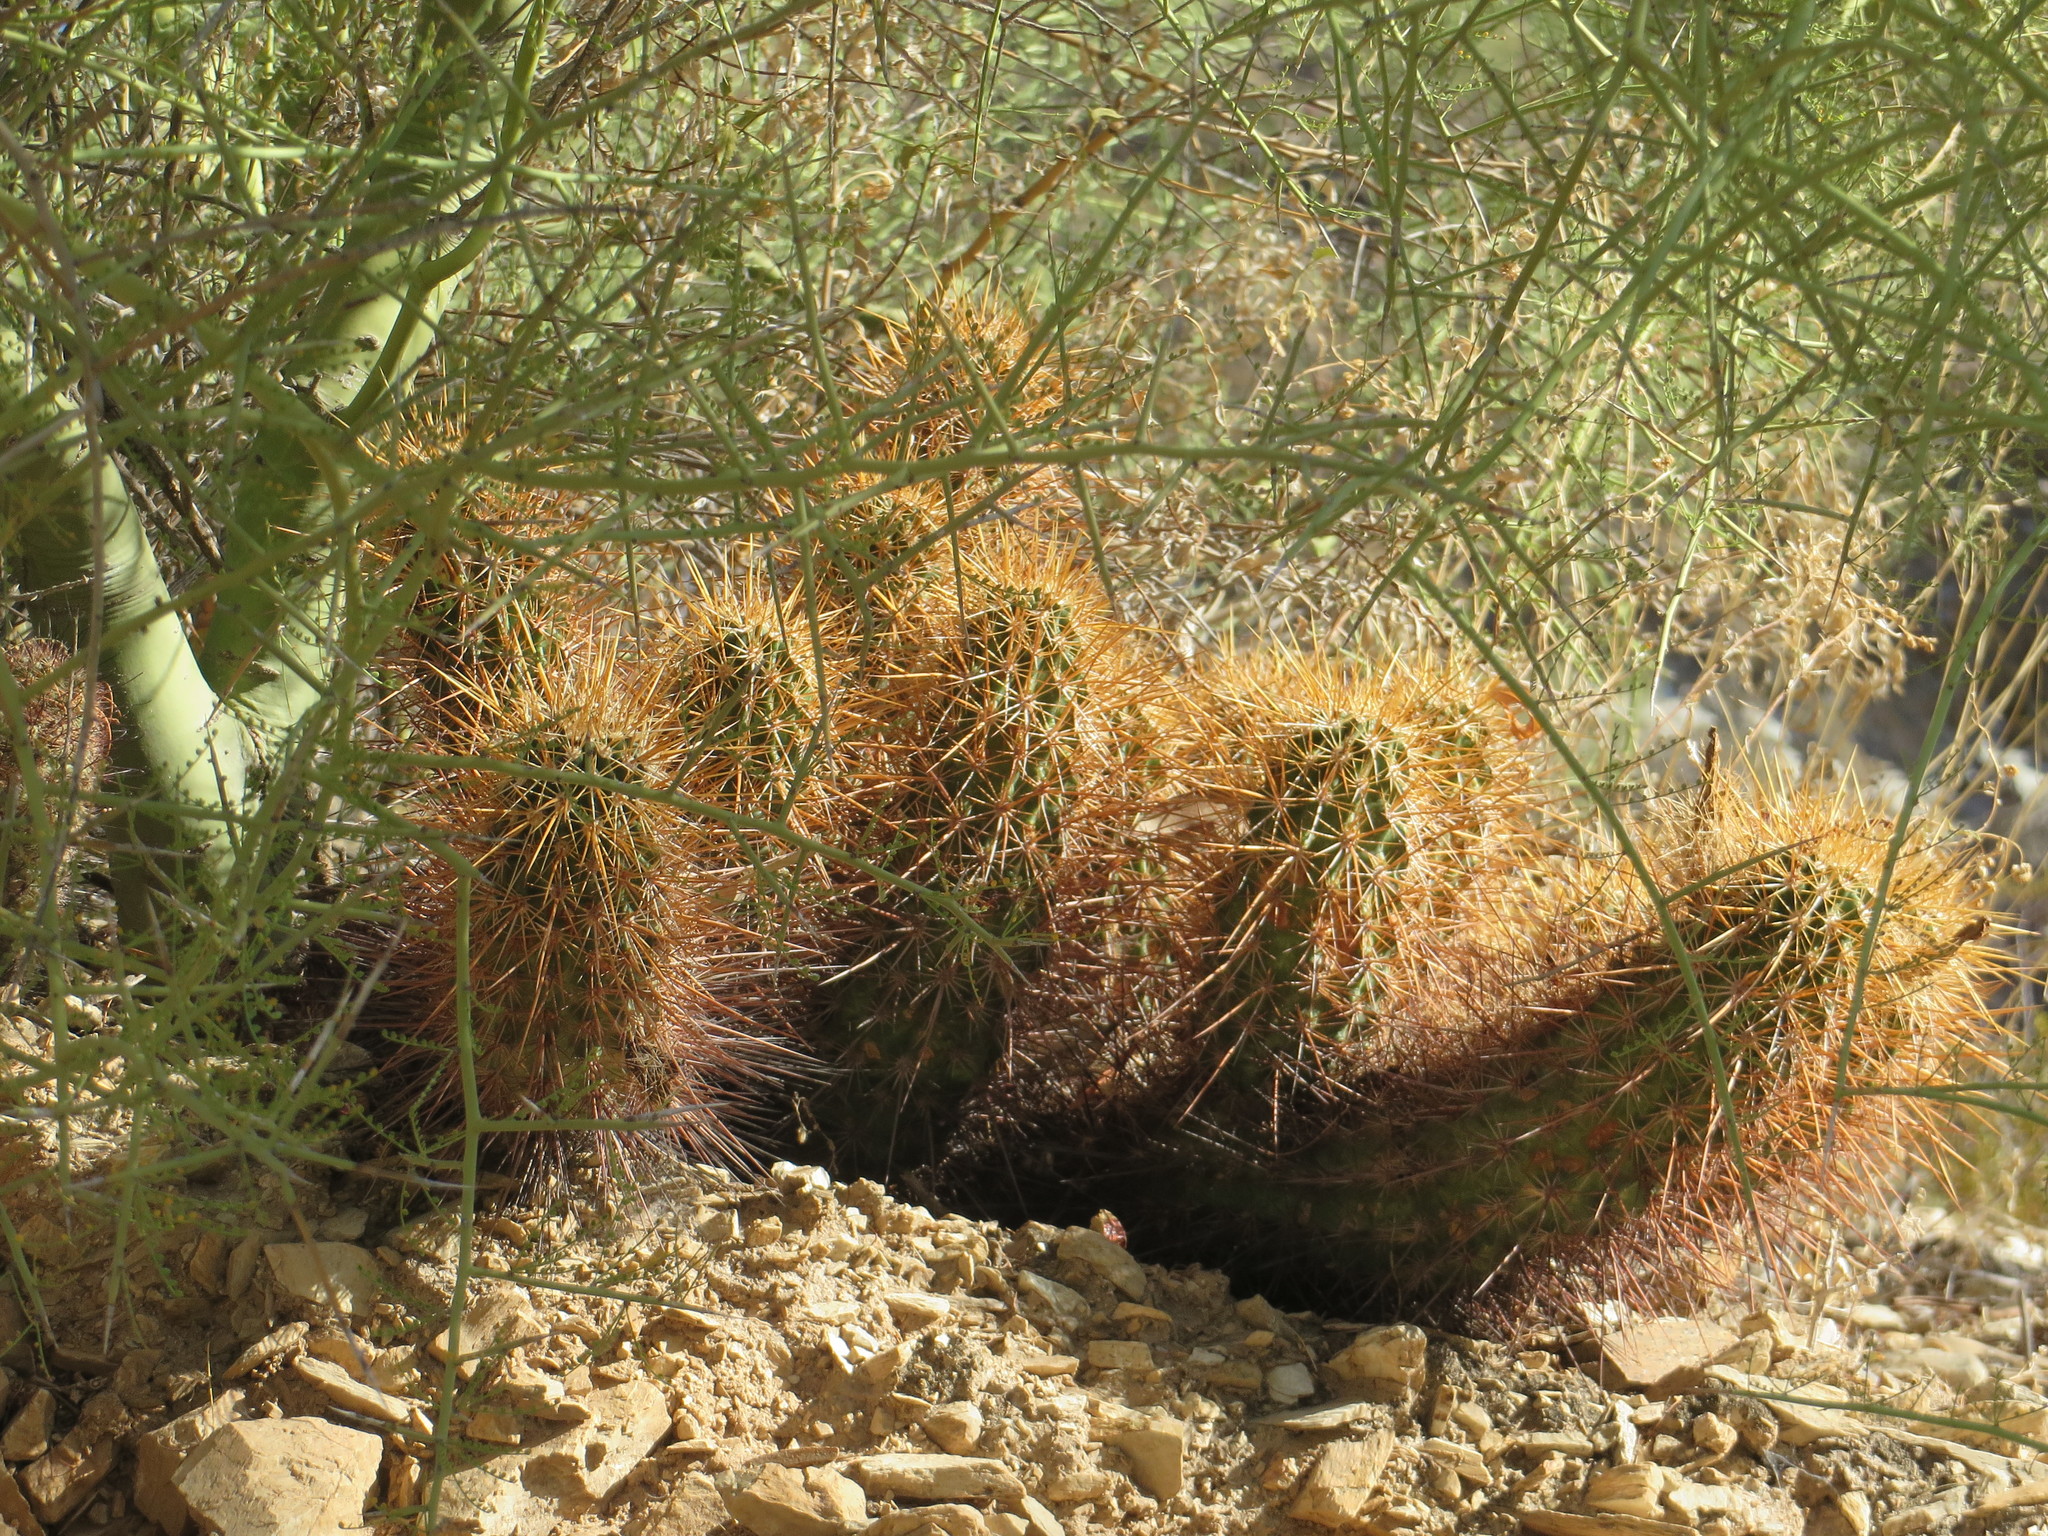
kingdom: Plantae
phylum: Tracheophyta
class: Magnoliopsida
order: Caryophyllales
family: Cactaceae
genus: Echinocereus
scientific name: Echinocereus engelmannii
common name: Engelmann's hedgehog cactus
